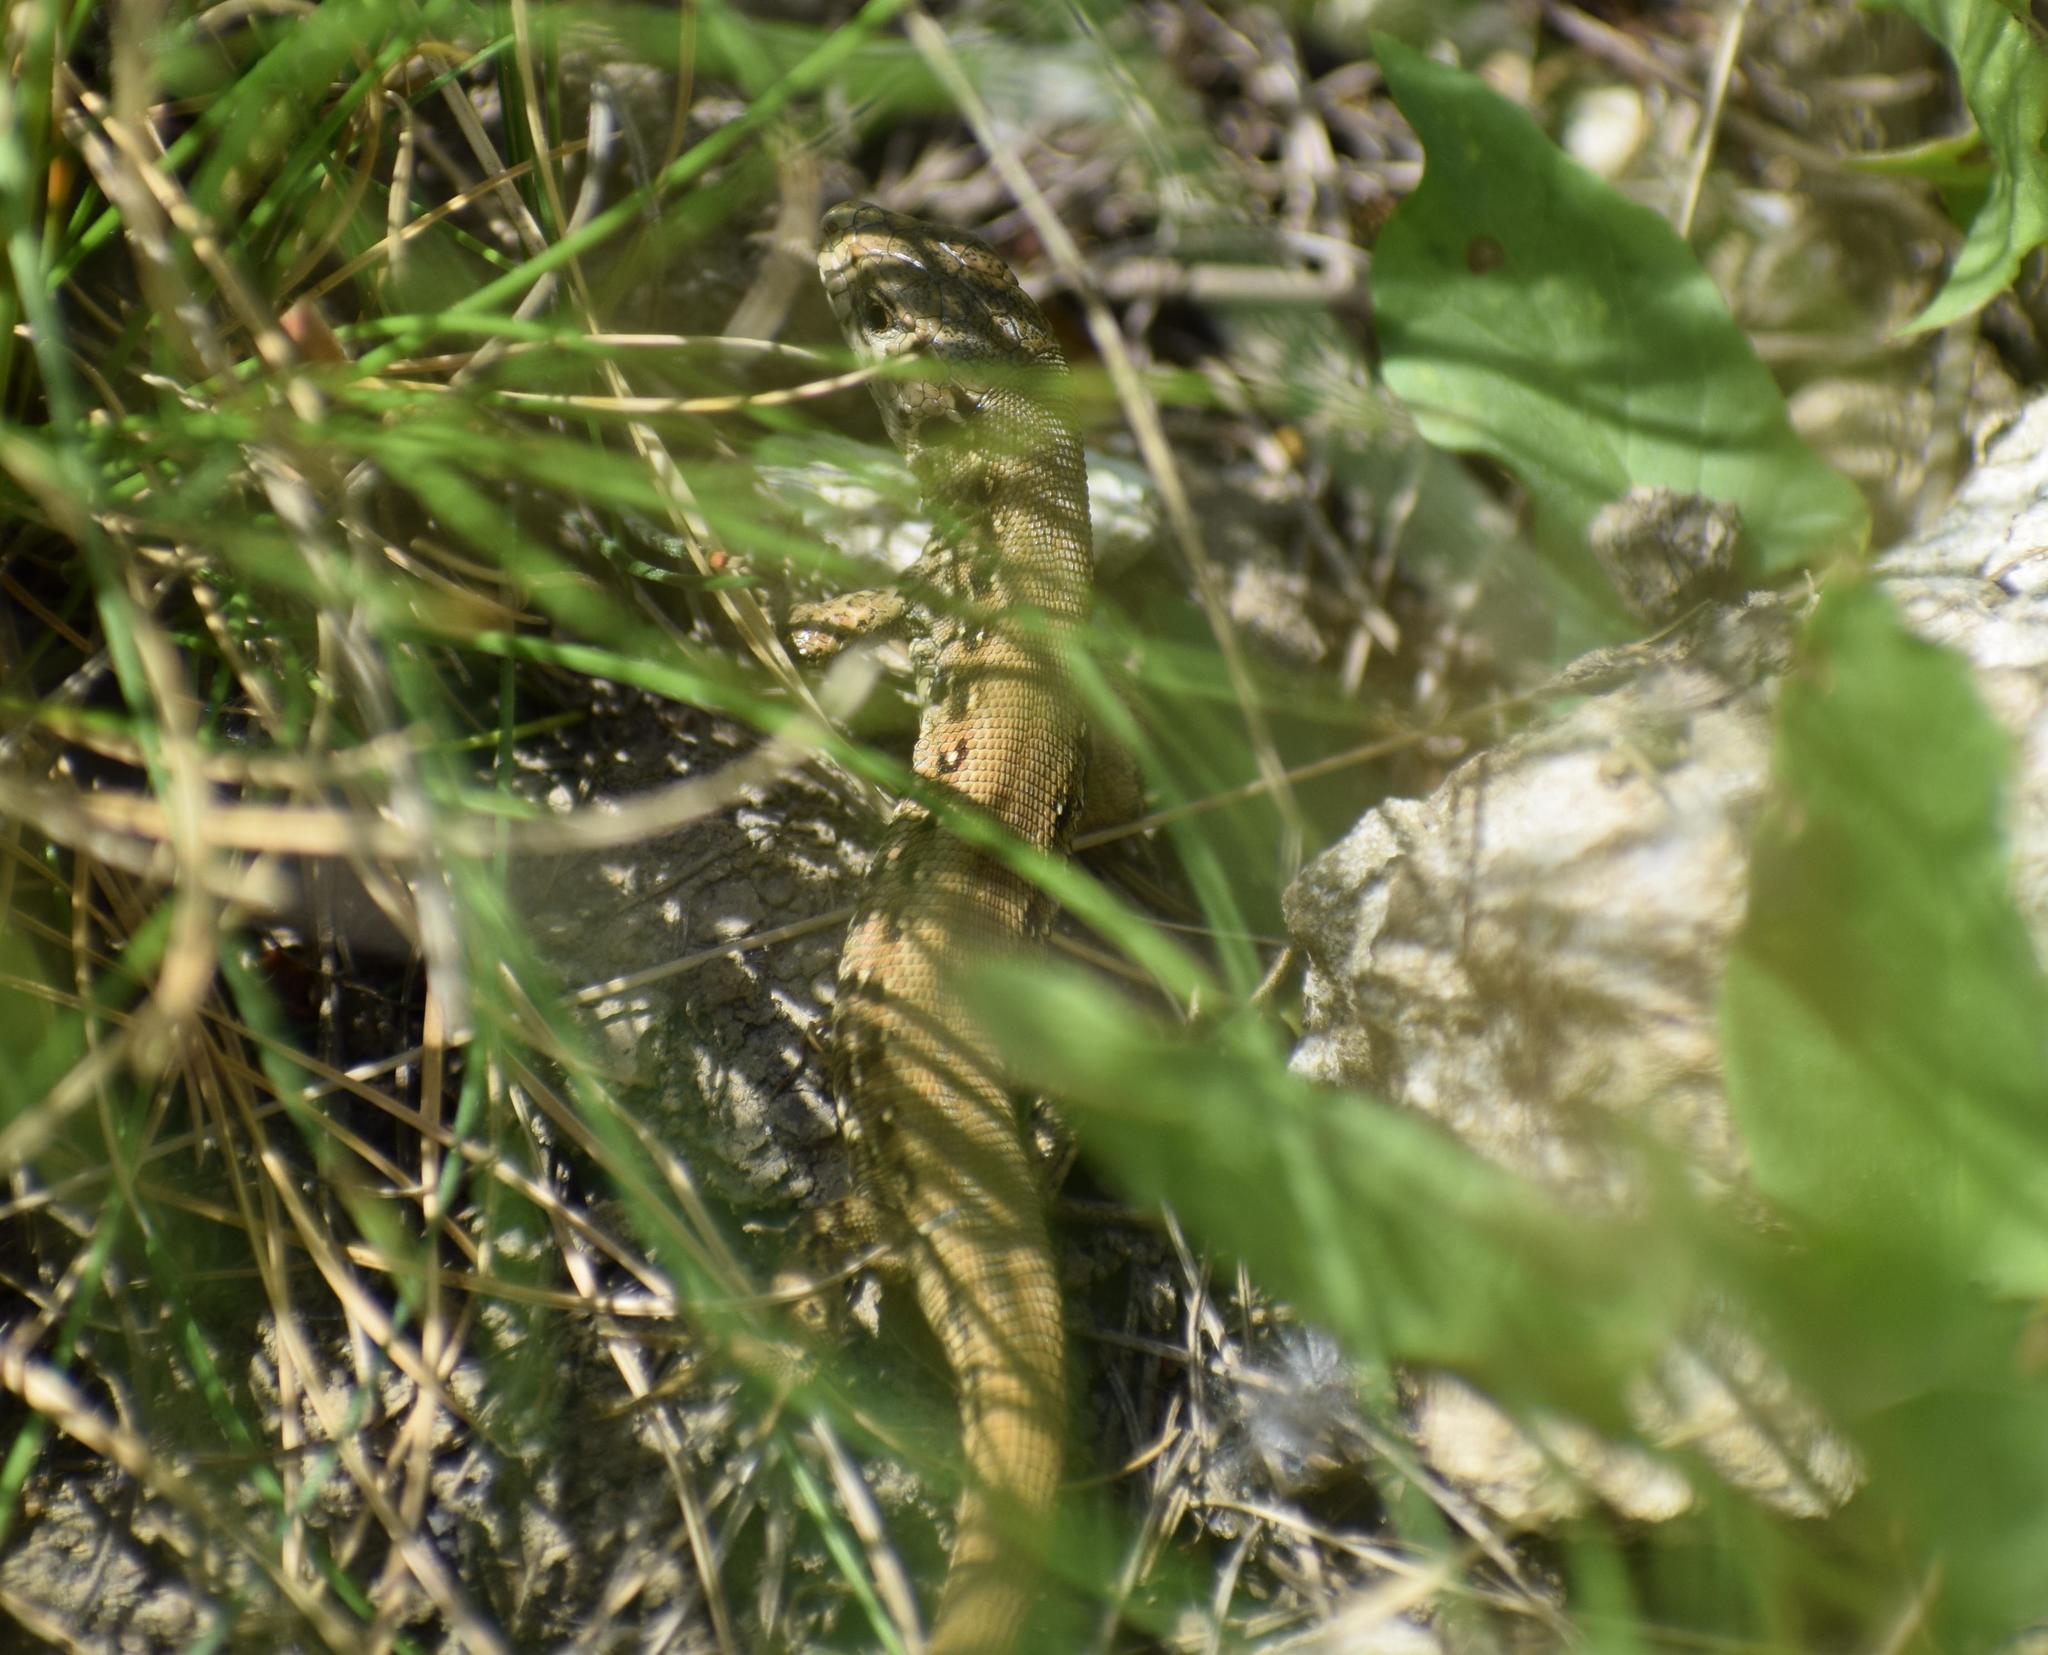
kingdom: Animalia
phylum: Chordata
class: Squamata
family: Lacertidae
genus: Lacerta
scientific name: Lacerta agilis
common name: Sand lizard
